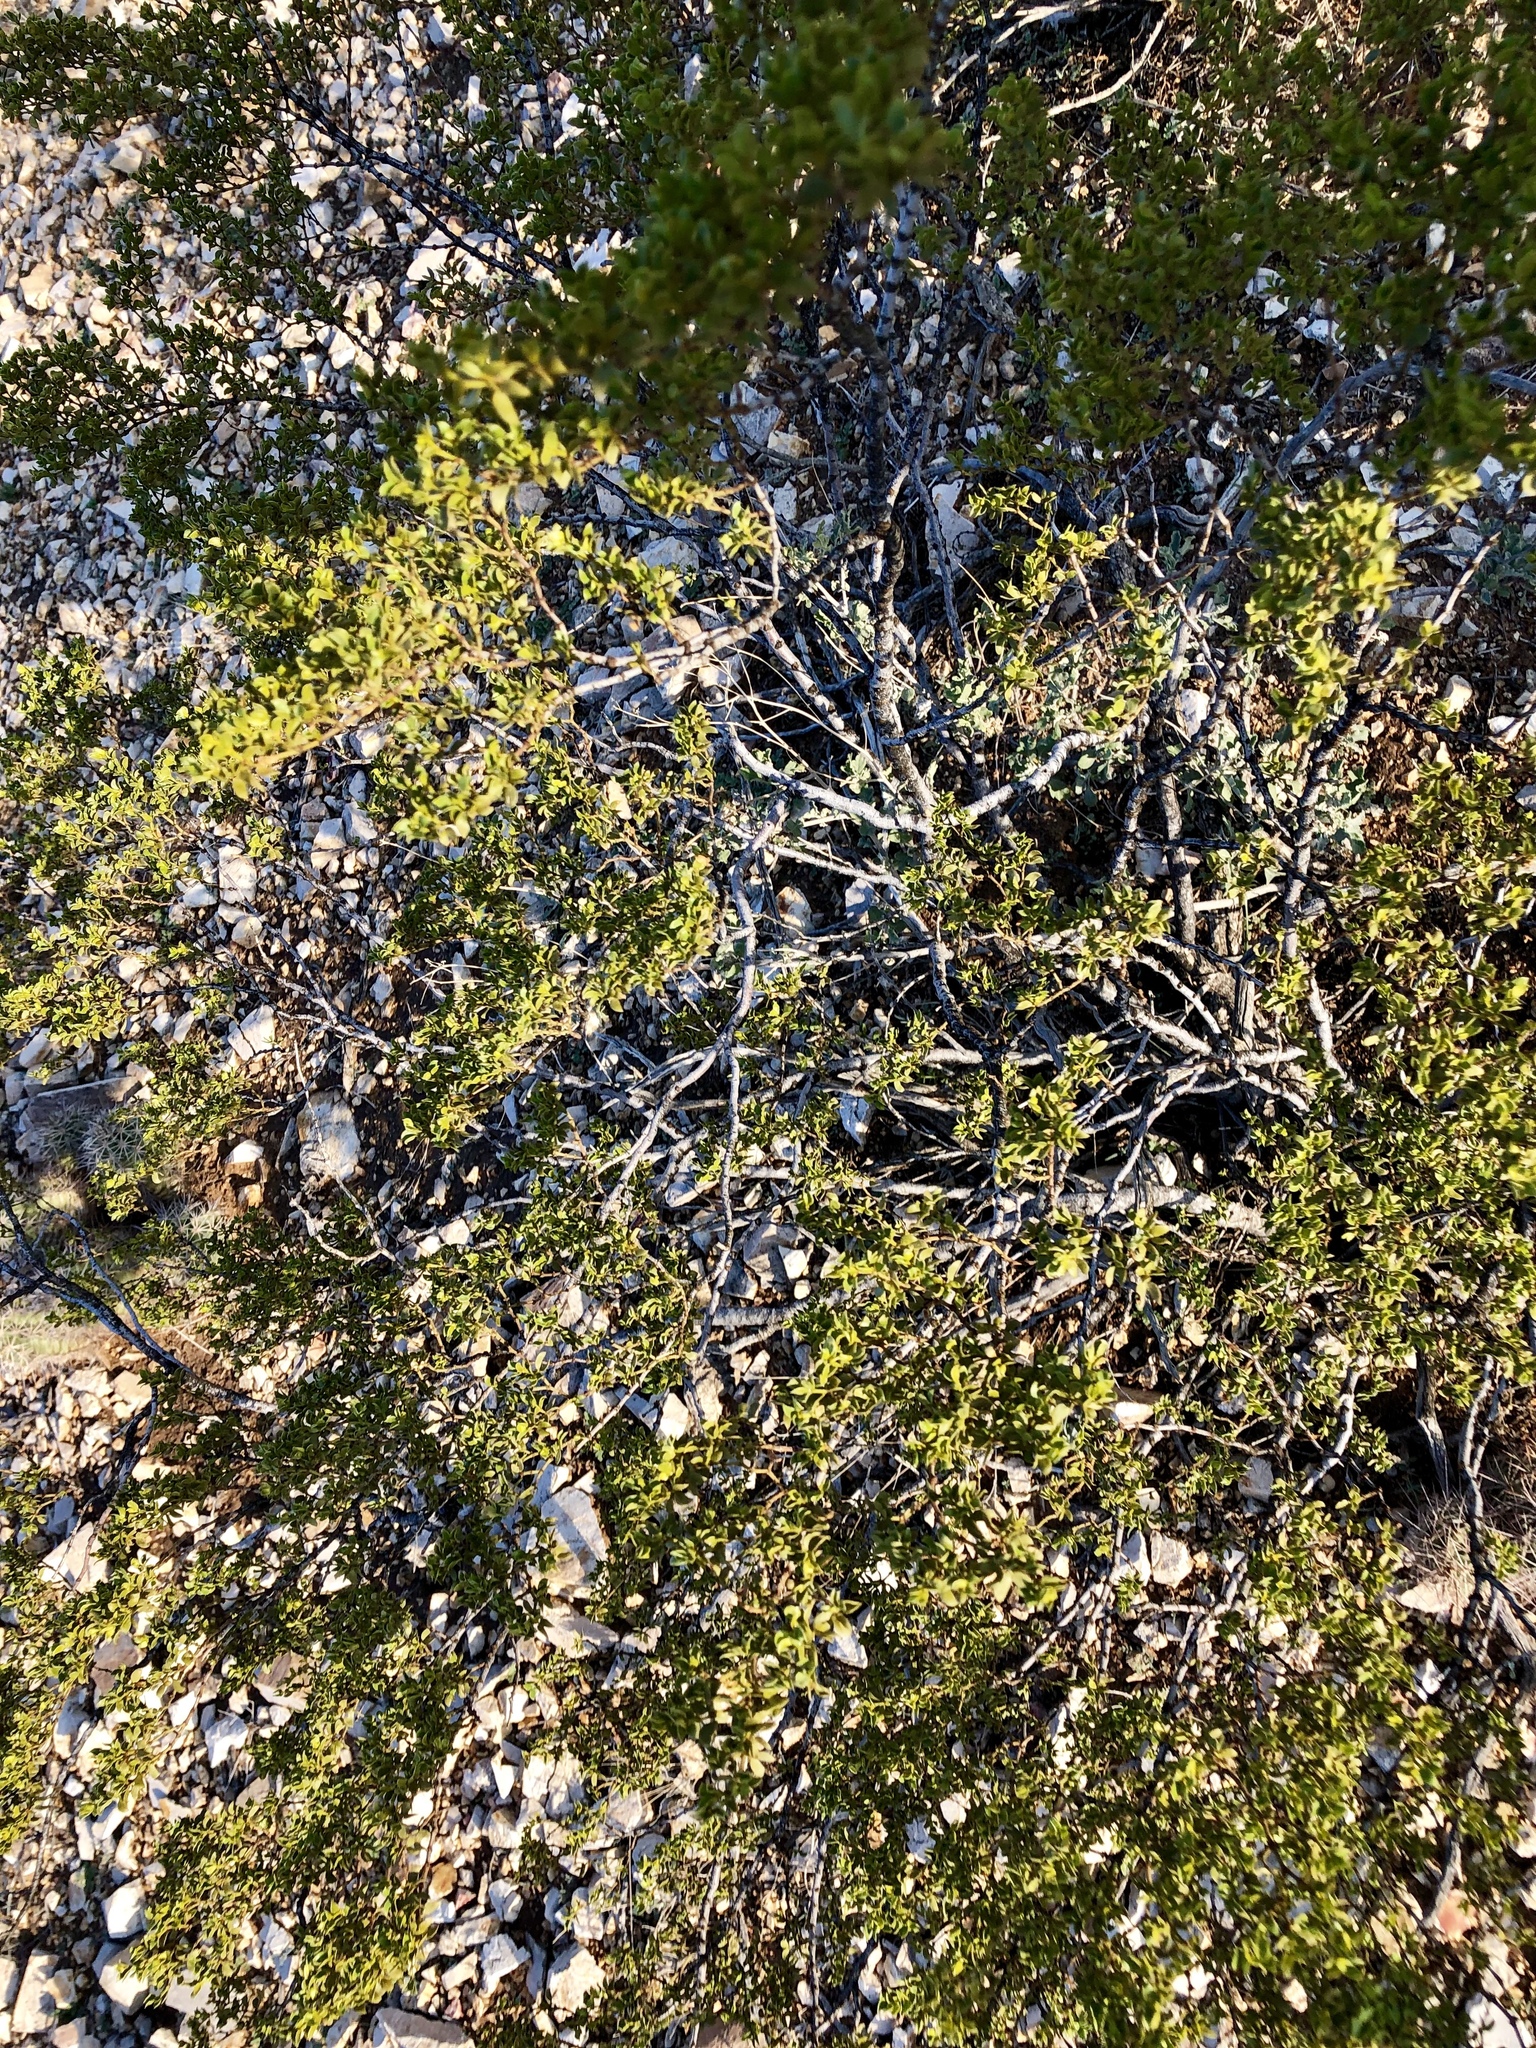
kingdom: Plantae
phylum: Tracheophyta
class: Magnoliopsida
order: Zygophyllales
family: Zygophyllaceae
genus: Larrea
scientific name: Larrea tridentata
